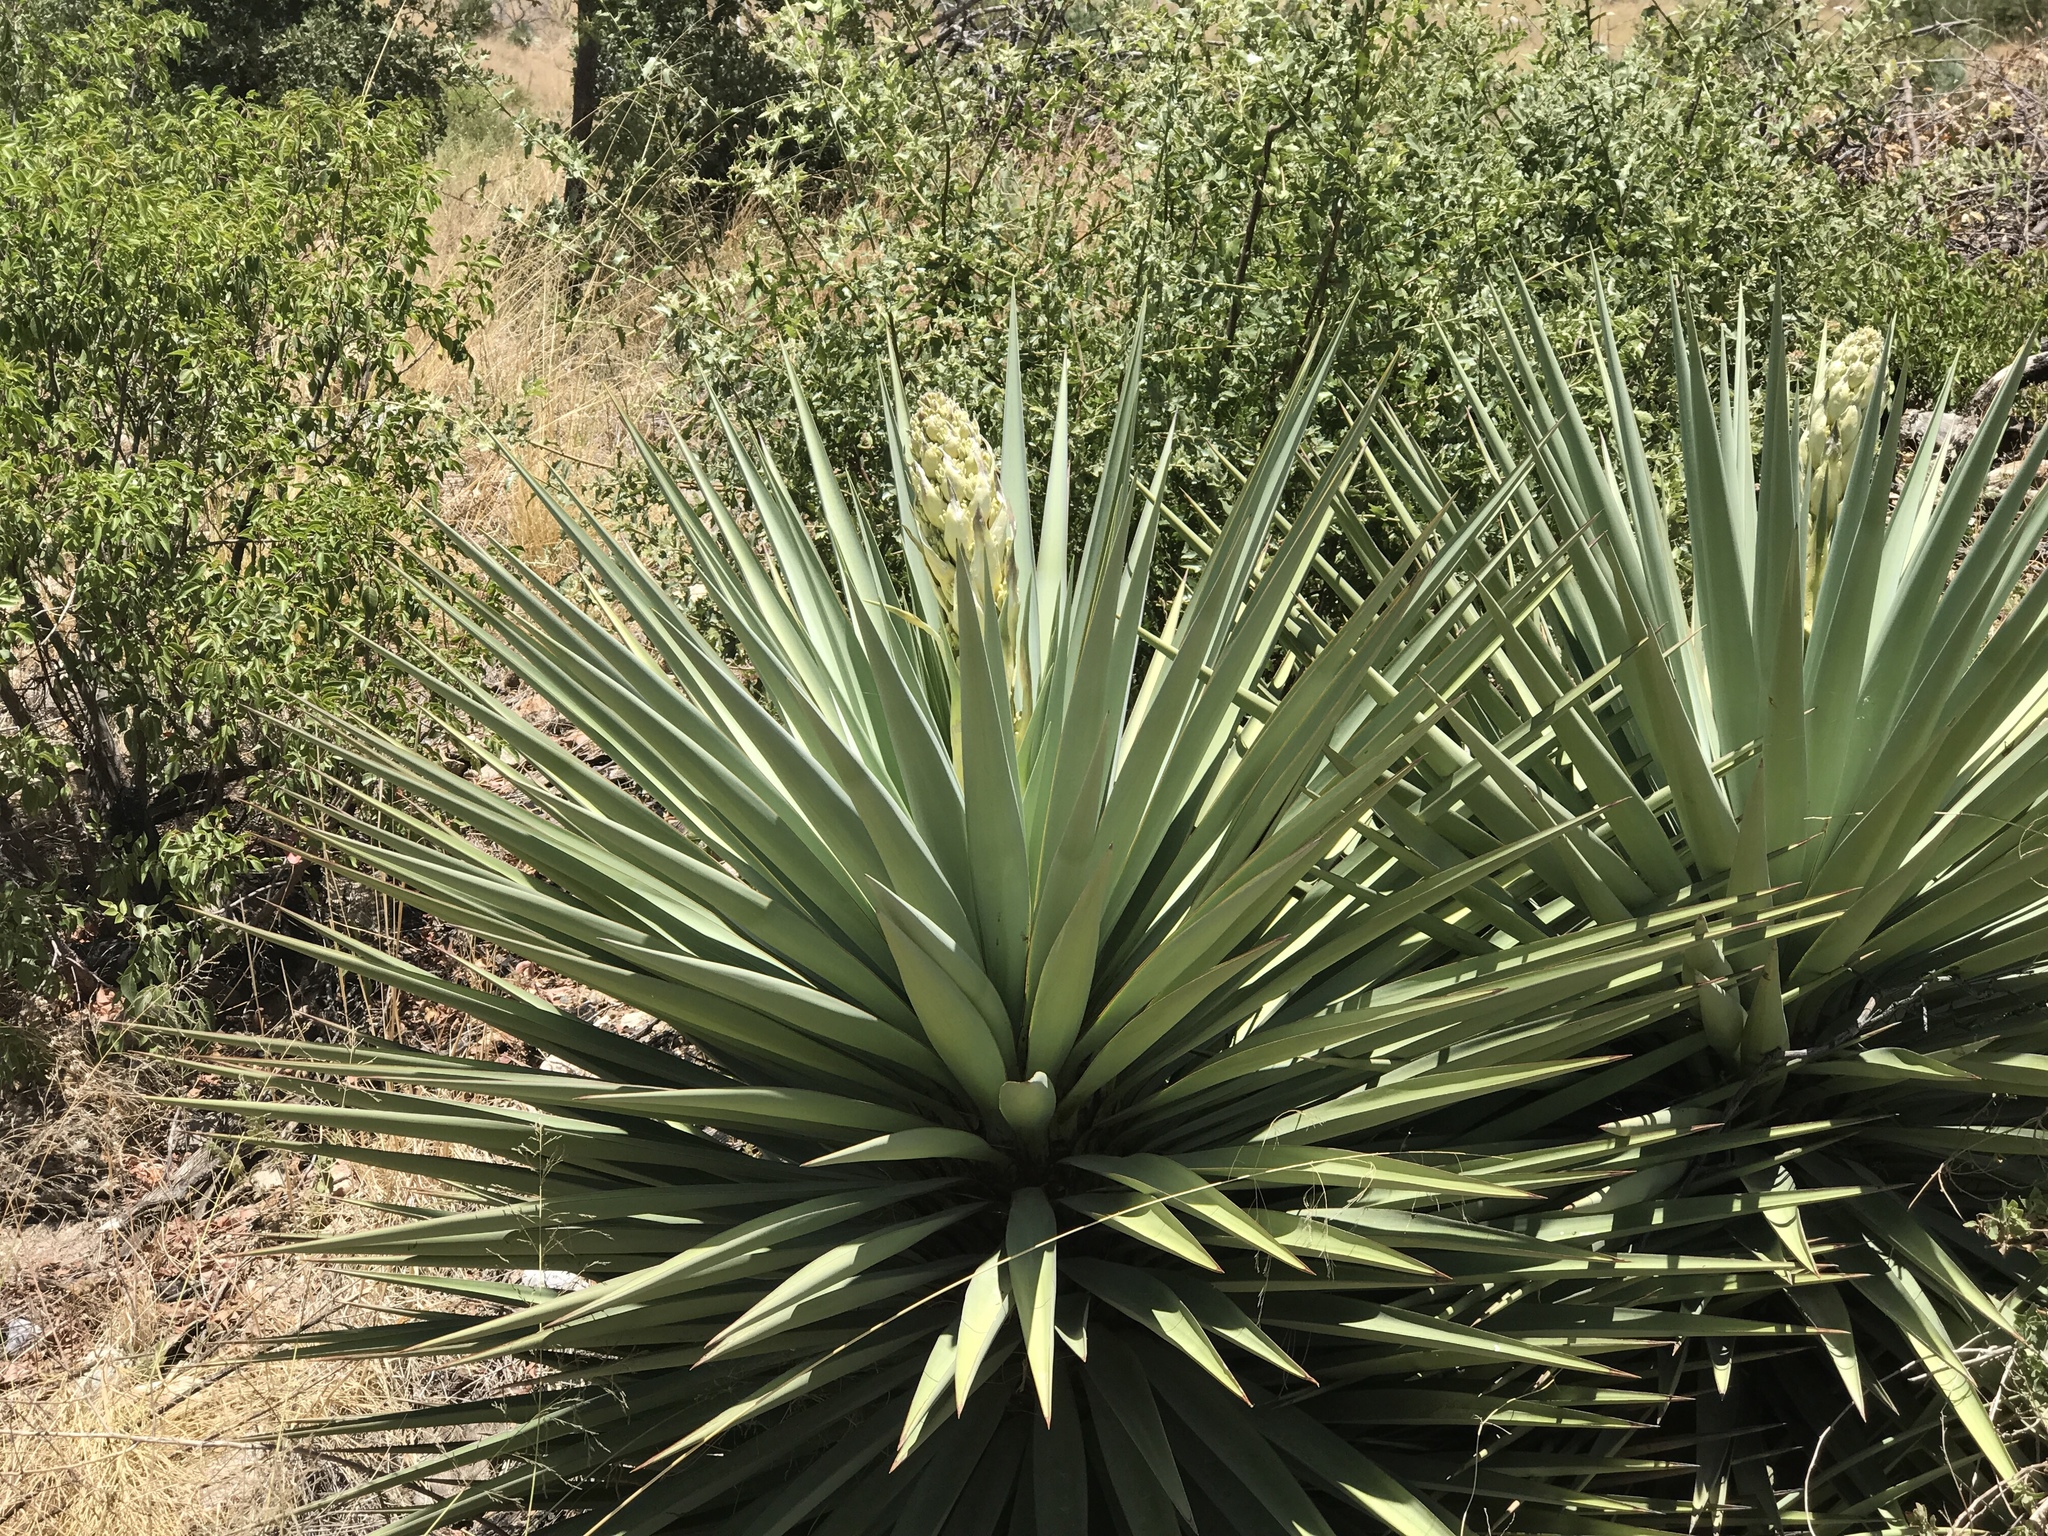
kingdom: Plantae
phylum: Tracheophyta
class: Liliopsida
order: Asparagales
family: Asparagaceae
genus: Yucca
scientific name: Yucca schottii
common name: Hoary yucca
